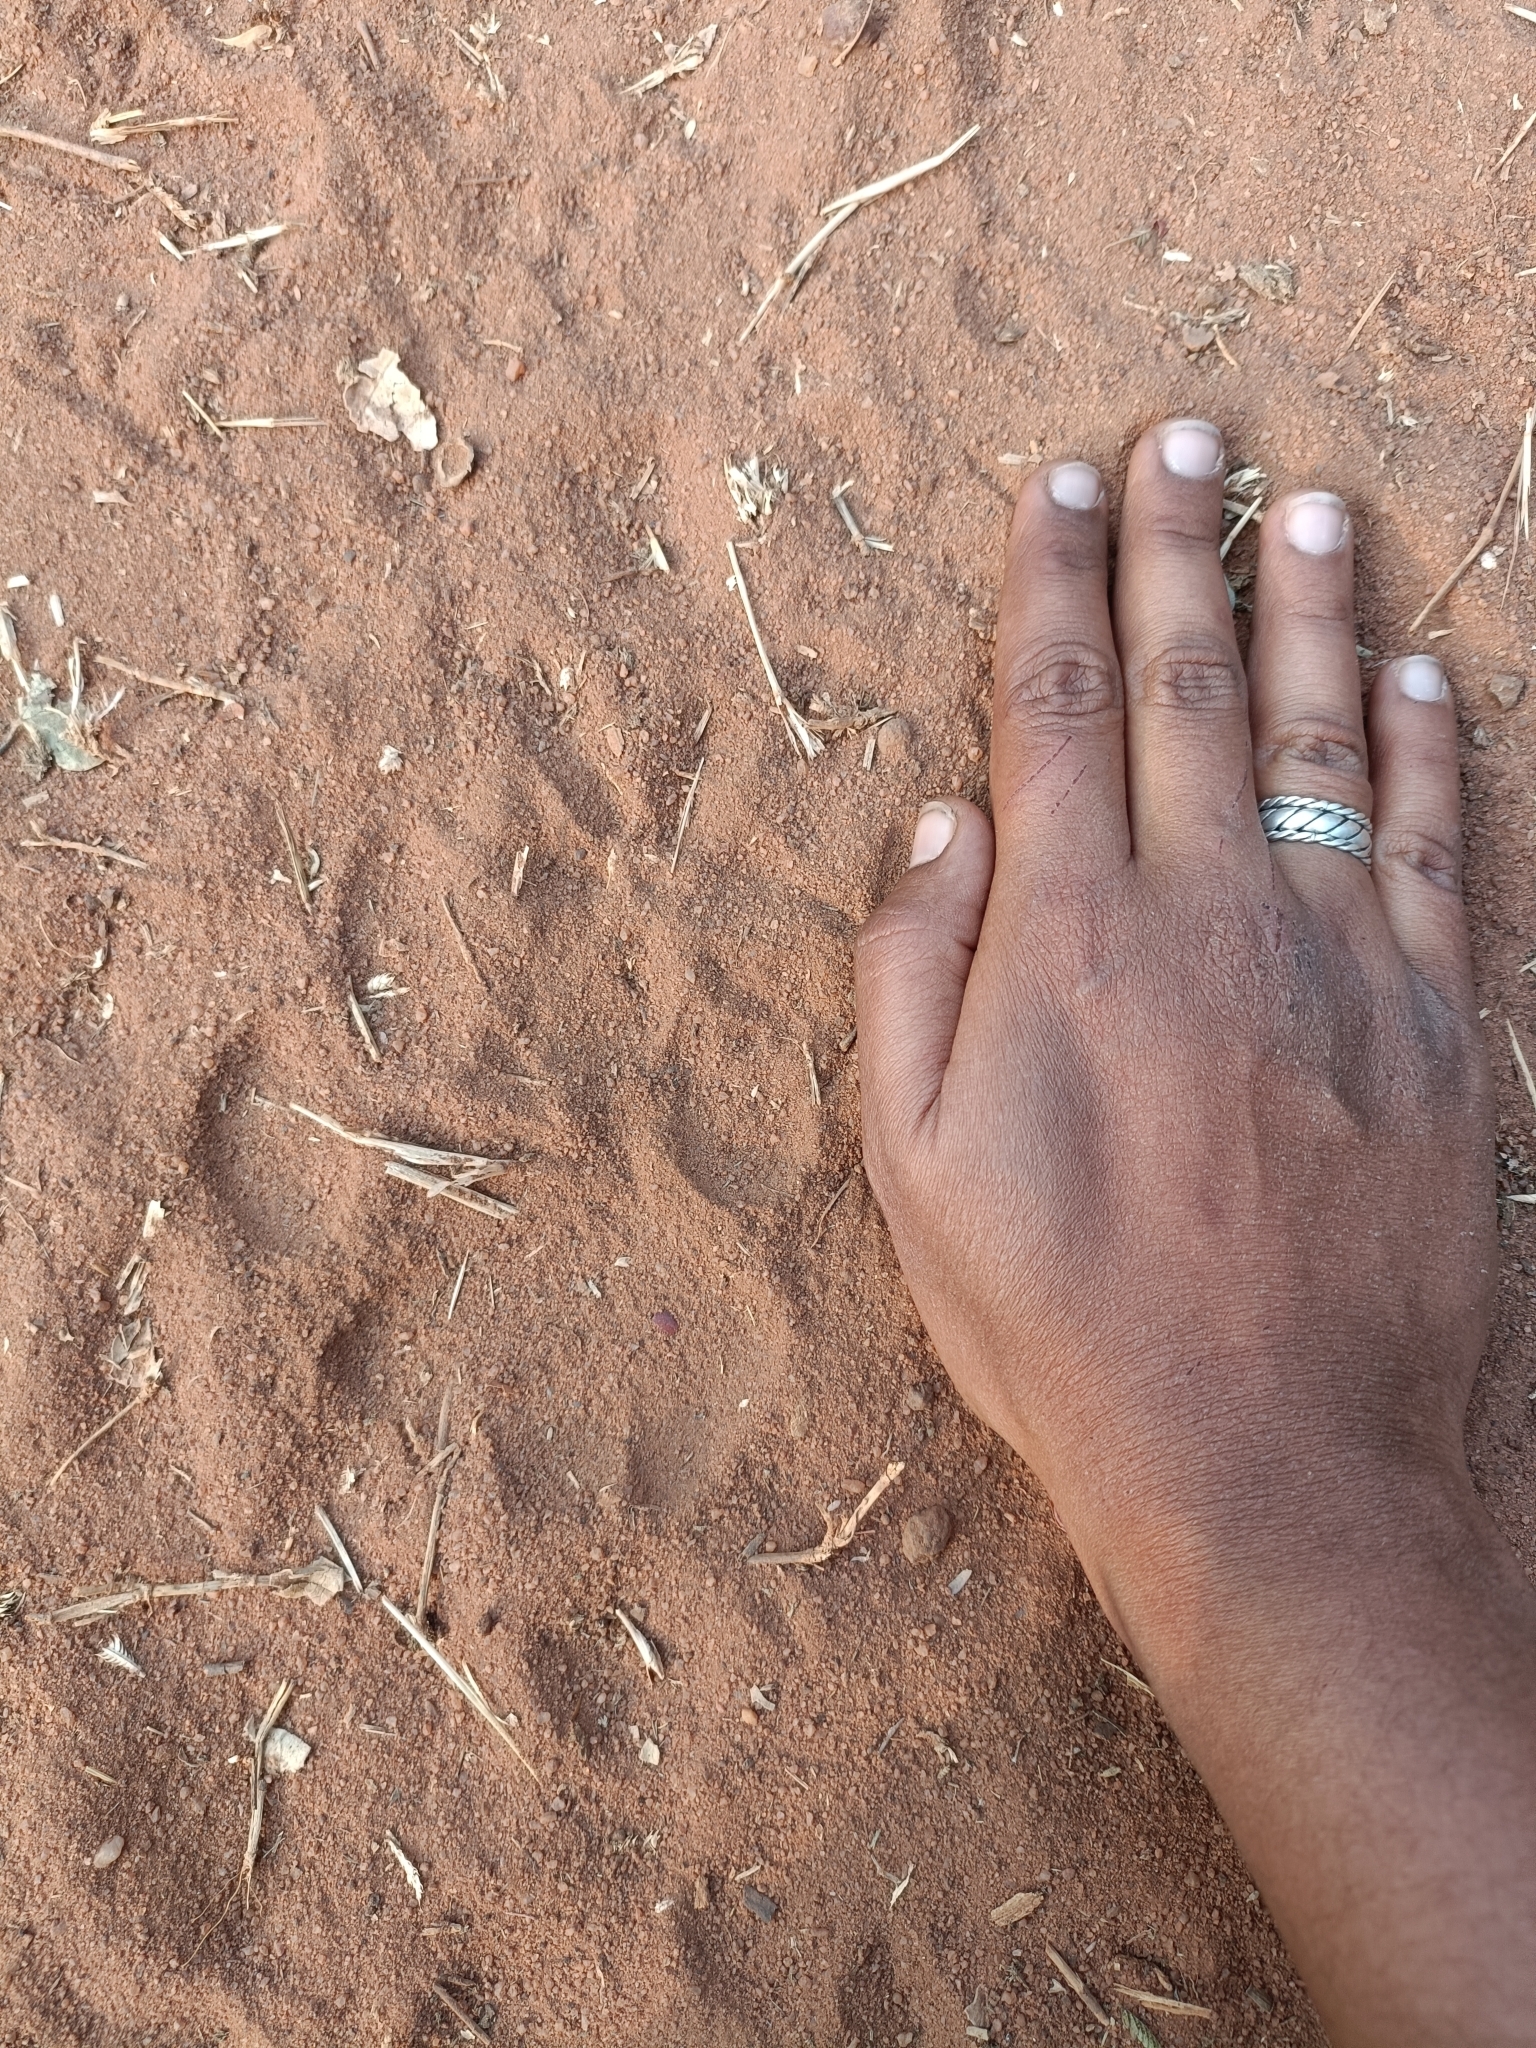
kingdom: Animalia
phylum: Chordata
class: Mammalia
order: Carnivora
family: Felidae
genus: Panthera
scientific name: Panthera pardus
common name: Leopard
